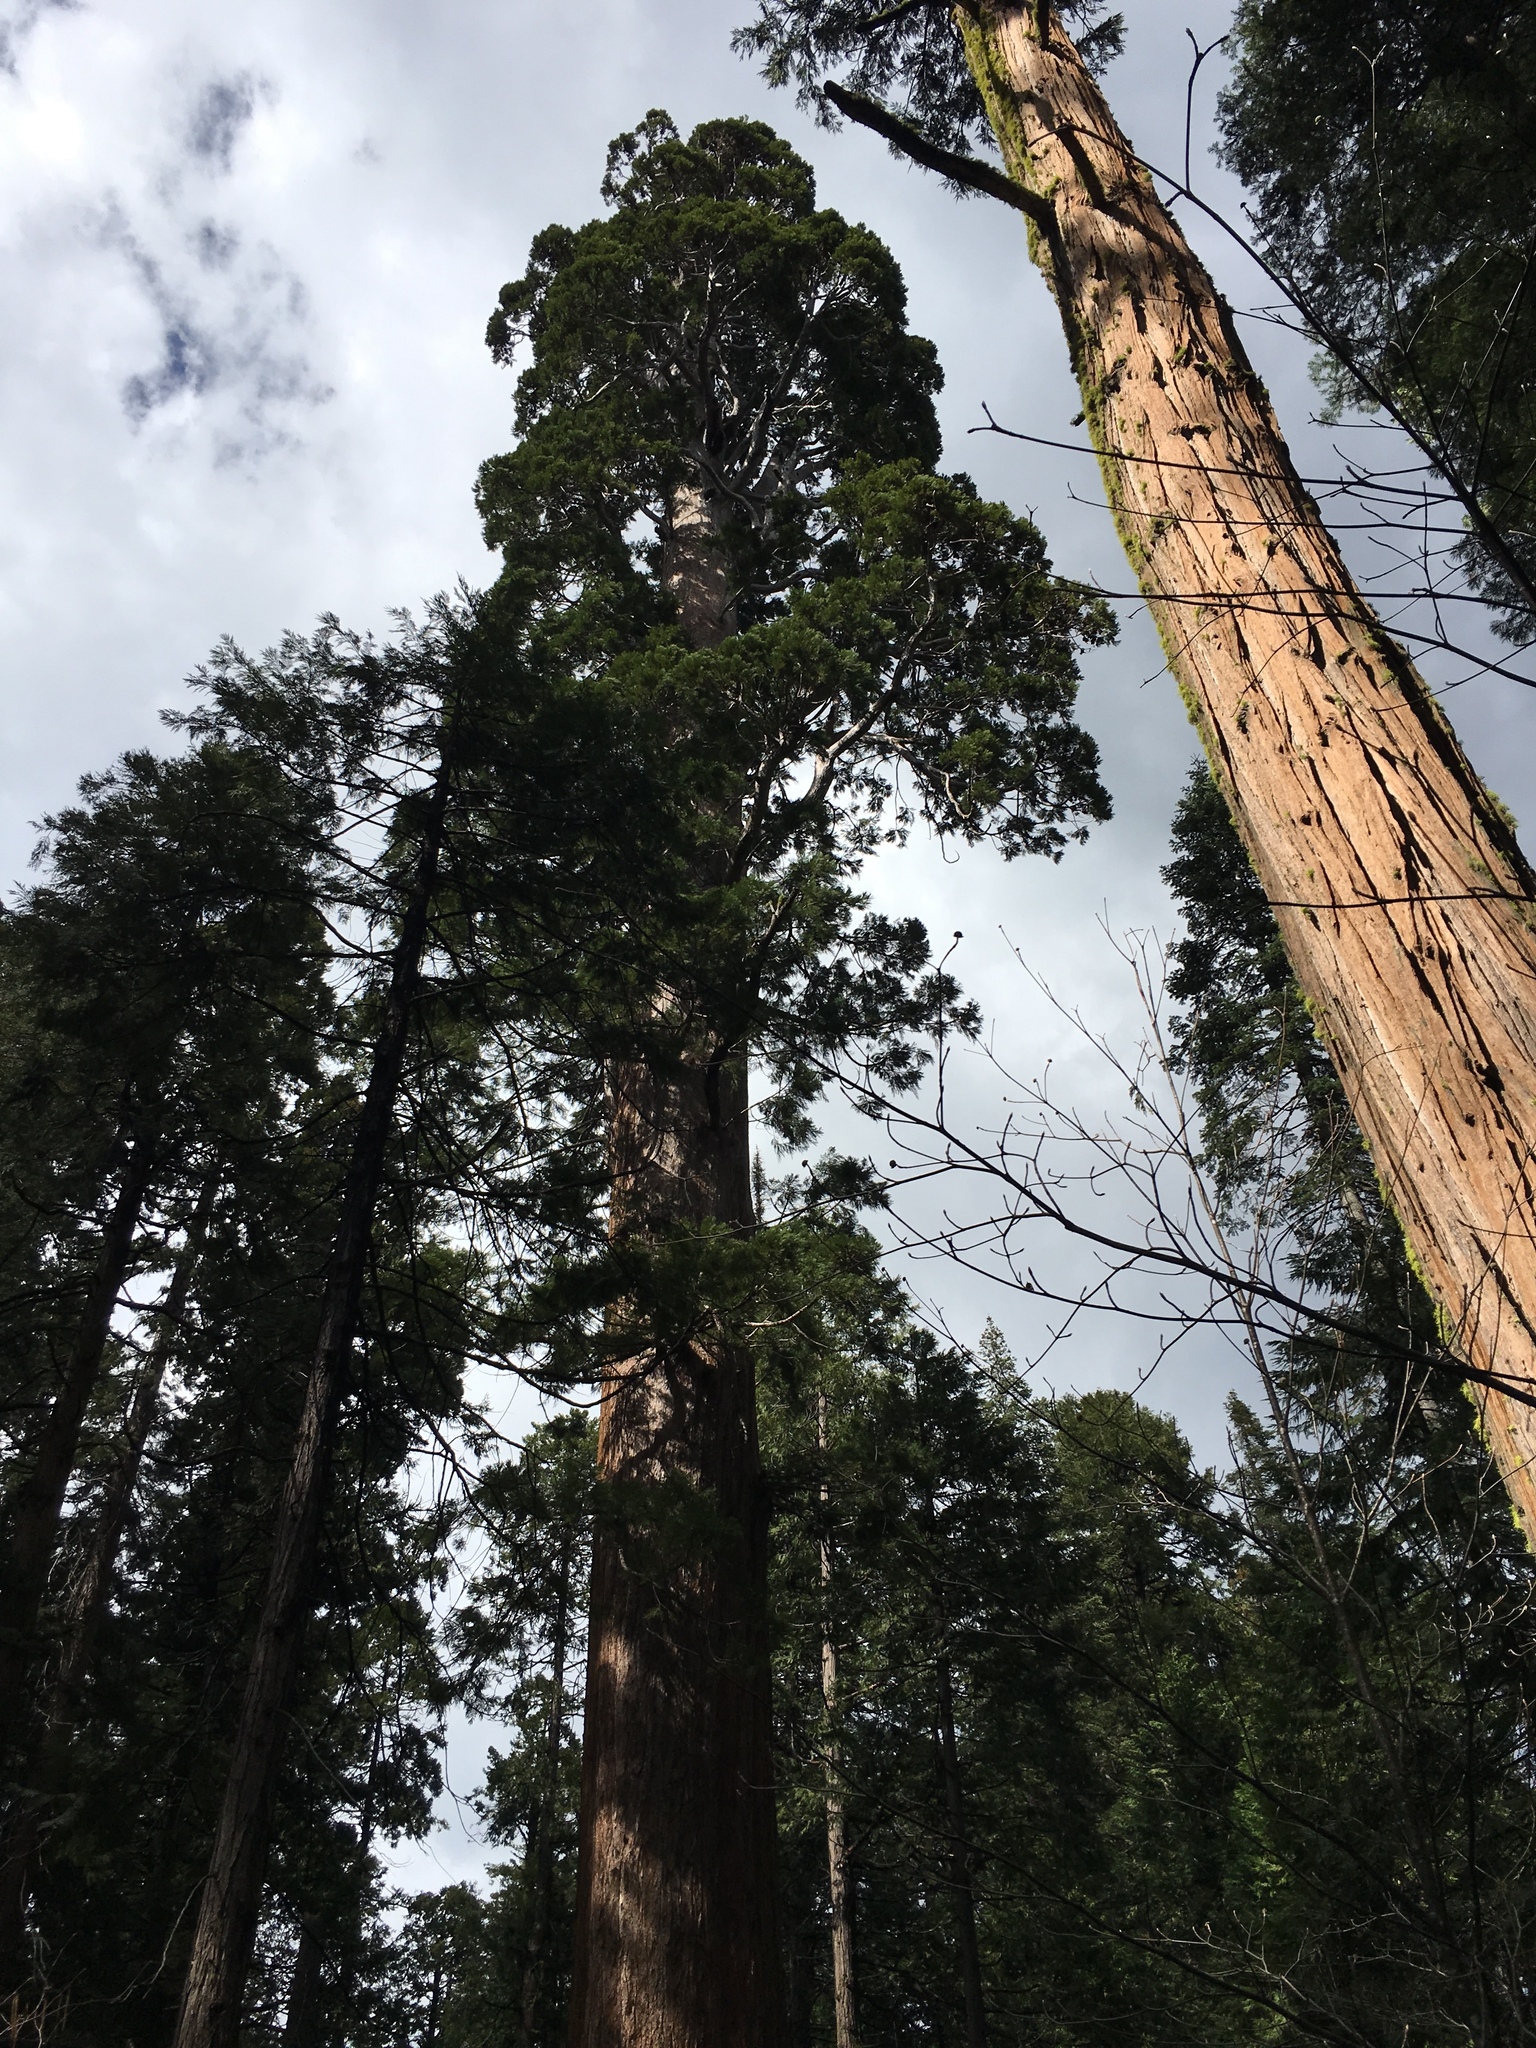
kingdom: Plantae
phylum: Tracheophyta
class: Pinopsida
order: Pinales
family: Cupressaceae
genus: Sequoiadendron
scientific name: Sequoiadendron giganteum
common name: Wellingtonia
